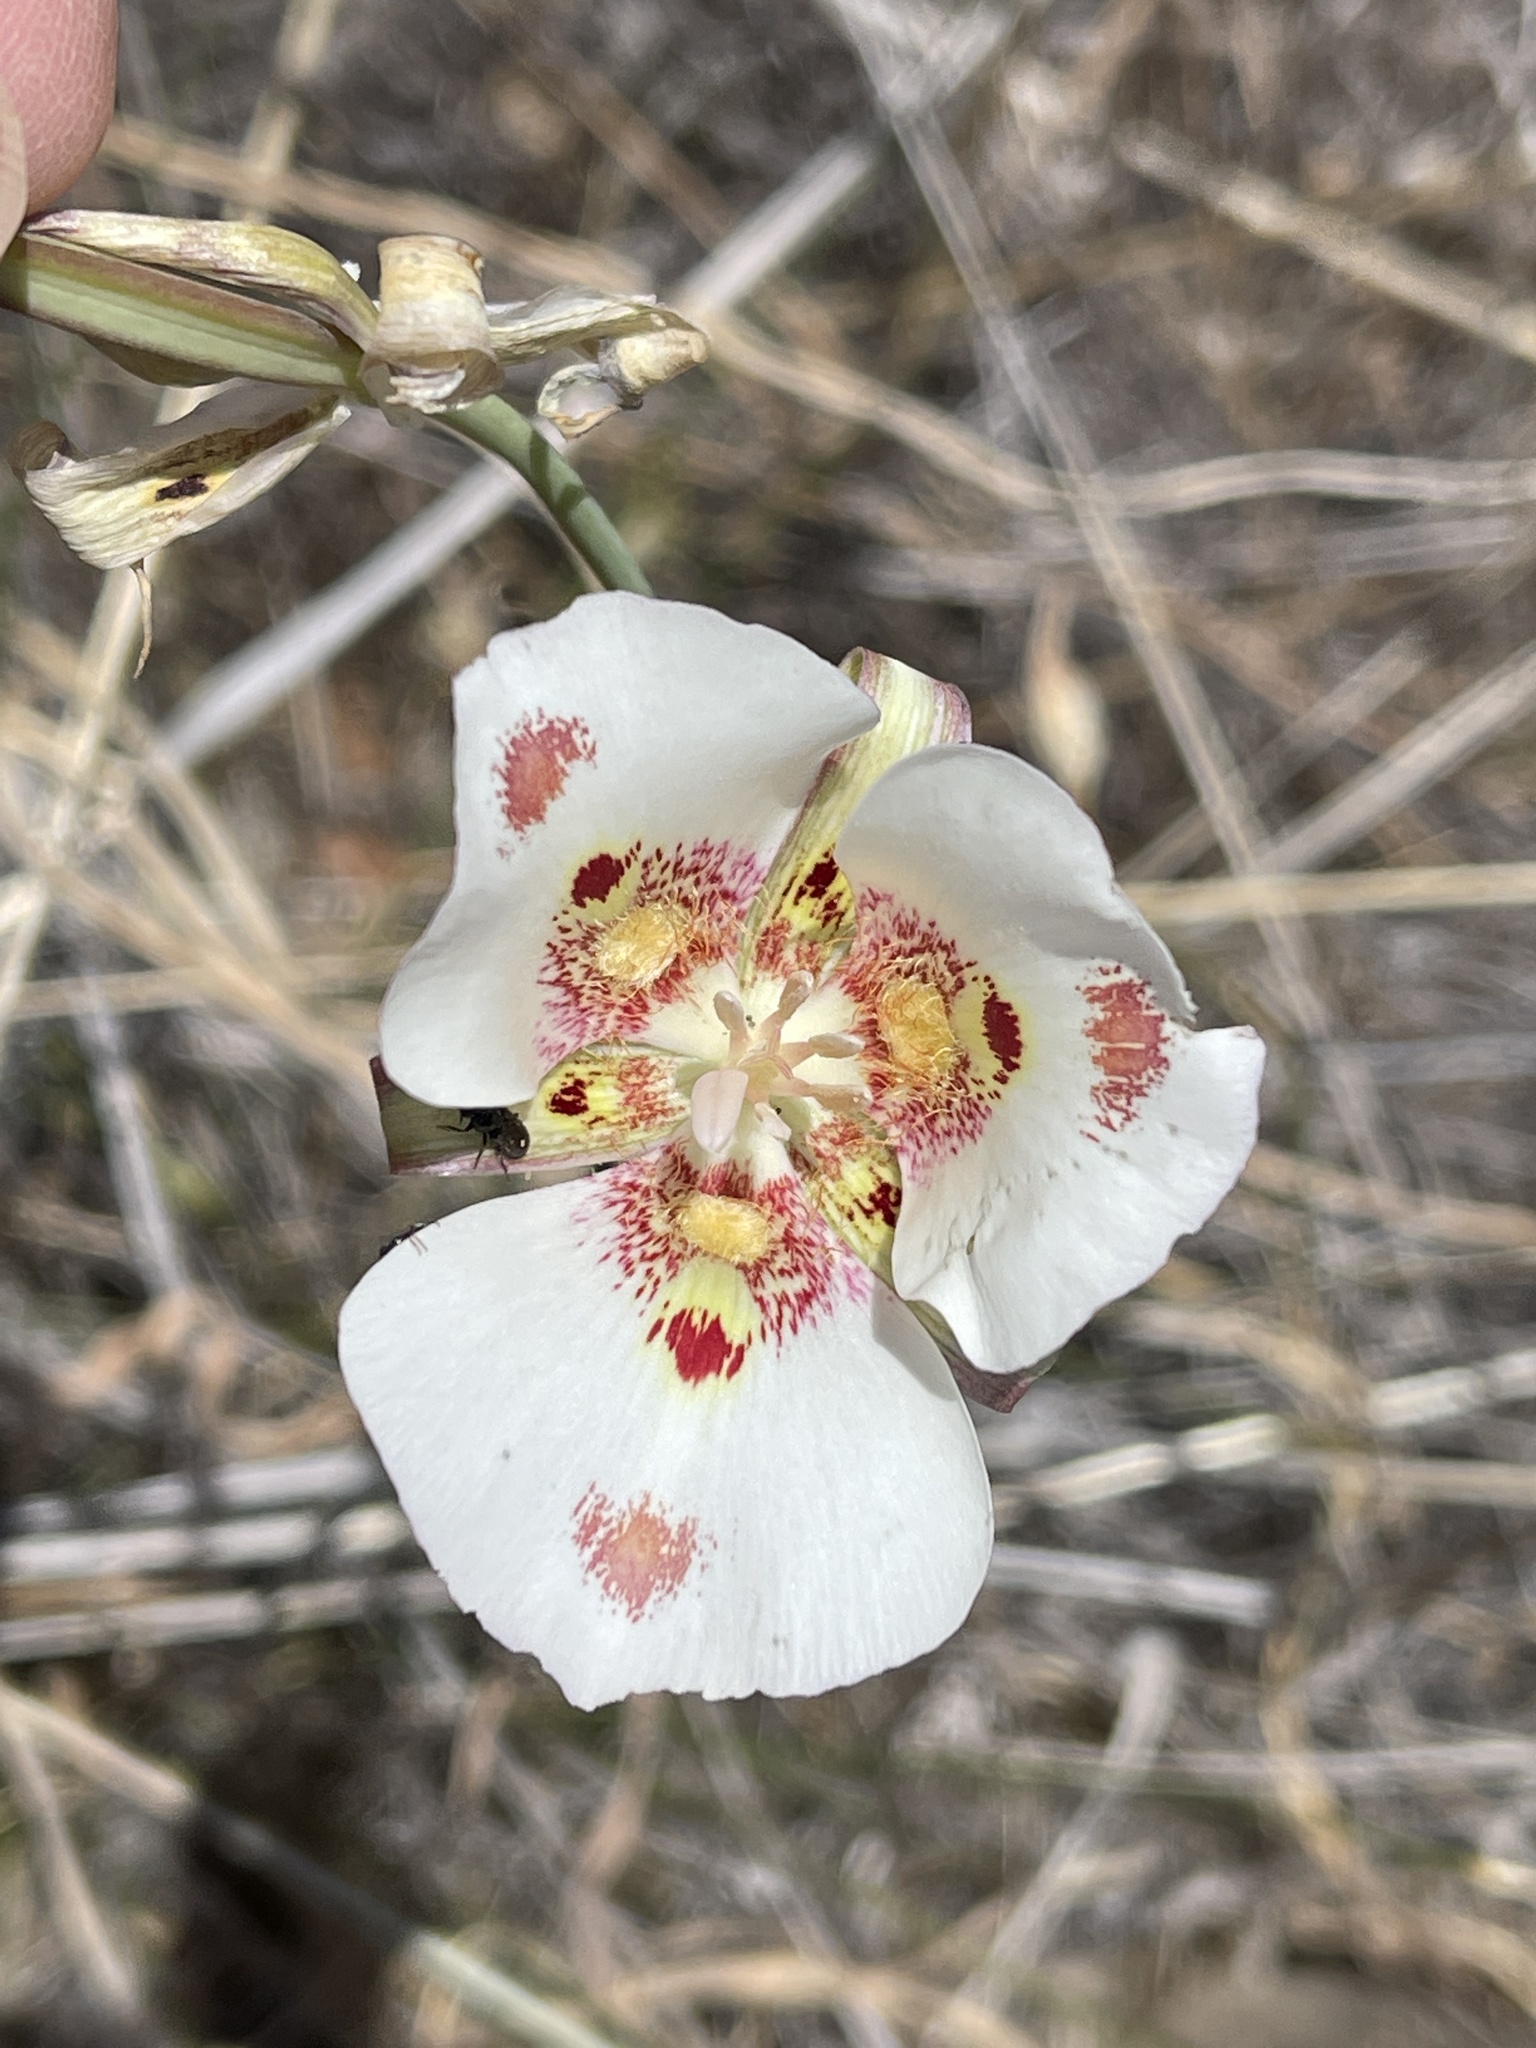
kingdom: Plantae
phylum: Tracheophyta
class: Liliopsida
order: Liliales
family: Liliaceae
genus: Calochortus
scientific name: Calochortus venustus
